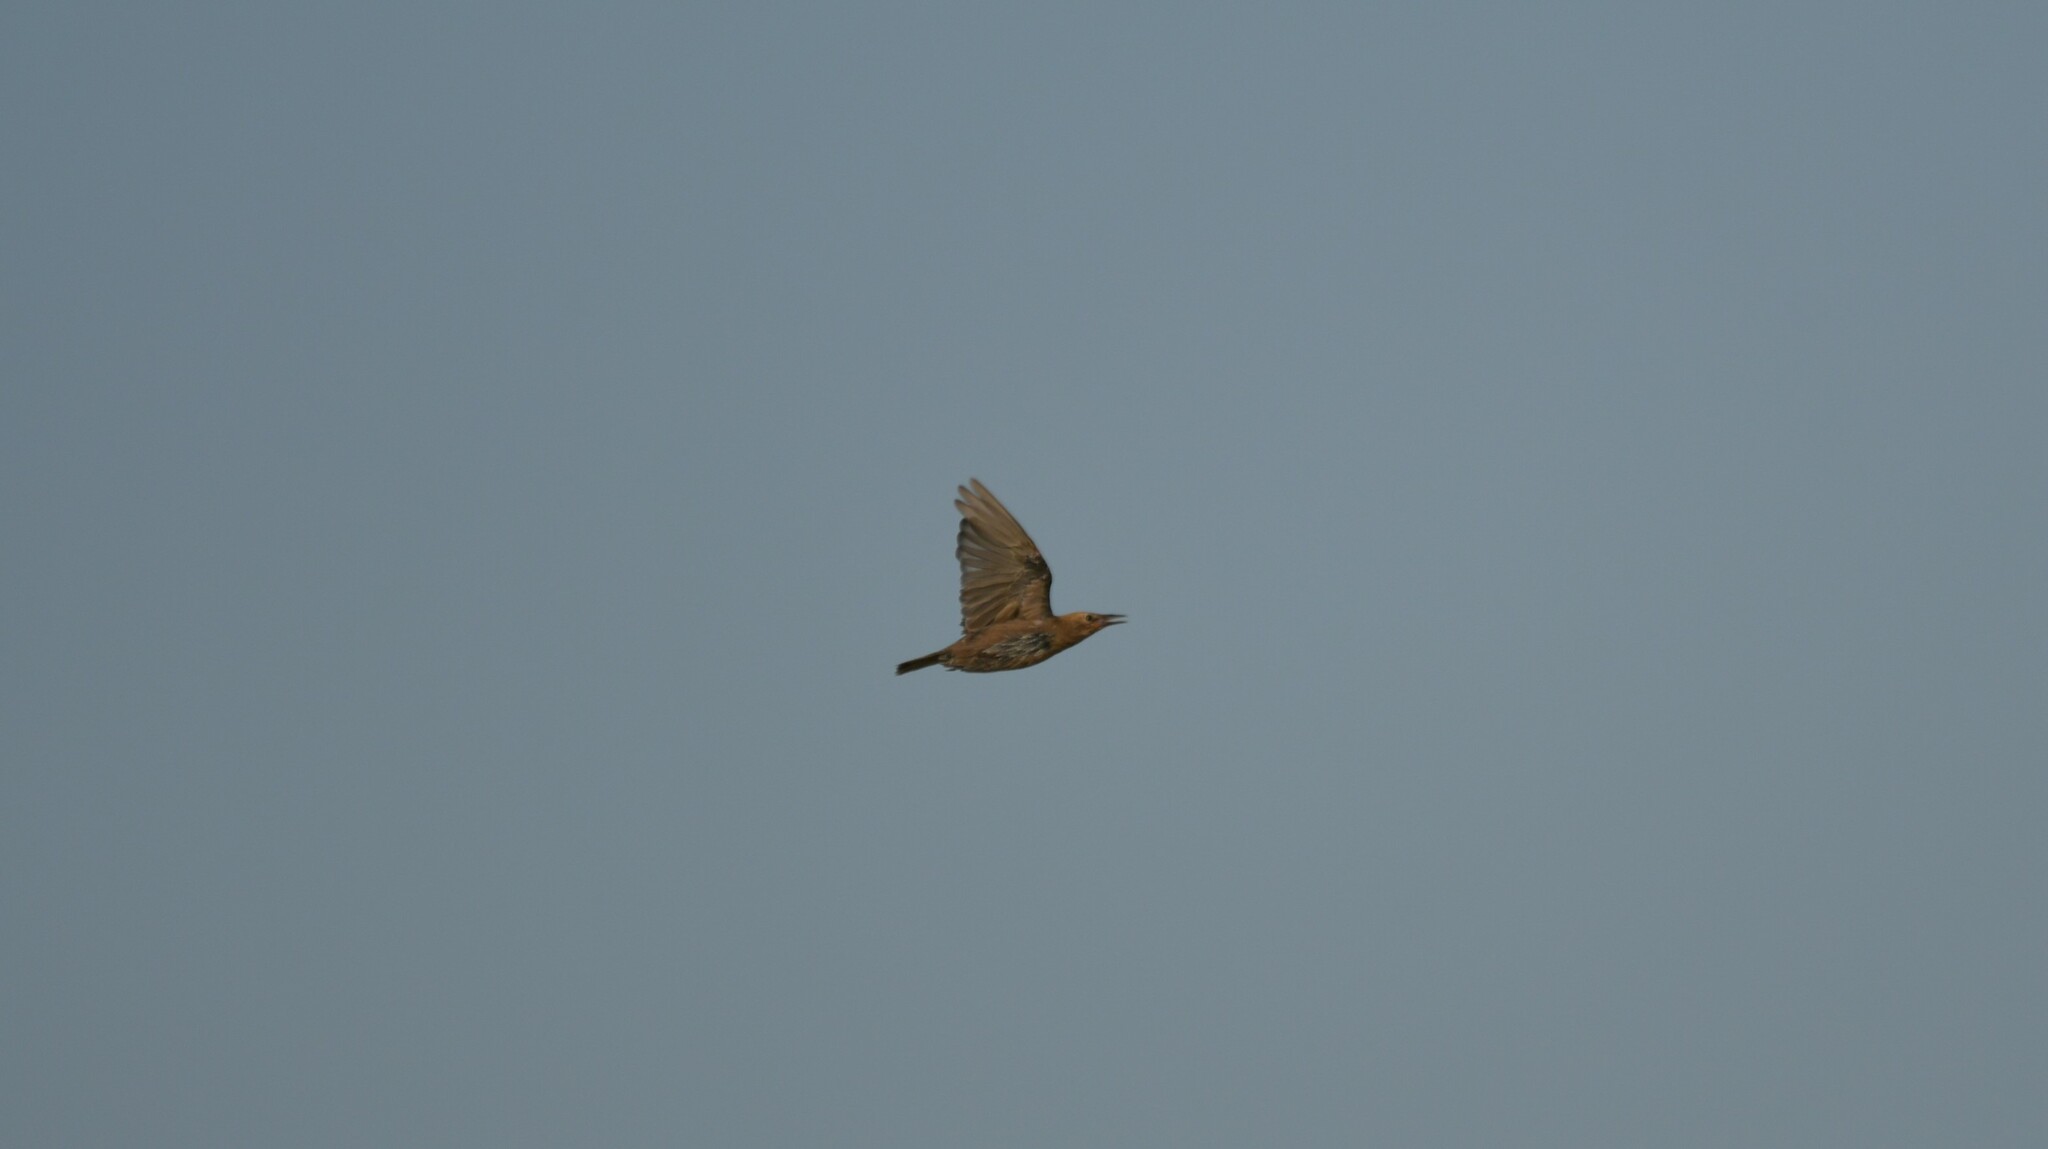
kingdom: Animalia
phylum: Chordata
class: Aves
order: Passeriformes
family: Sturnidae
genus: Sturnus
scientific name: Sturnus unicolor
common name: Spotless starling
